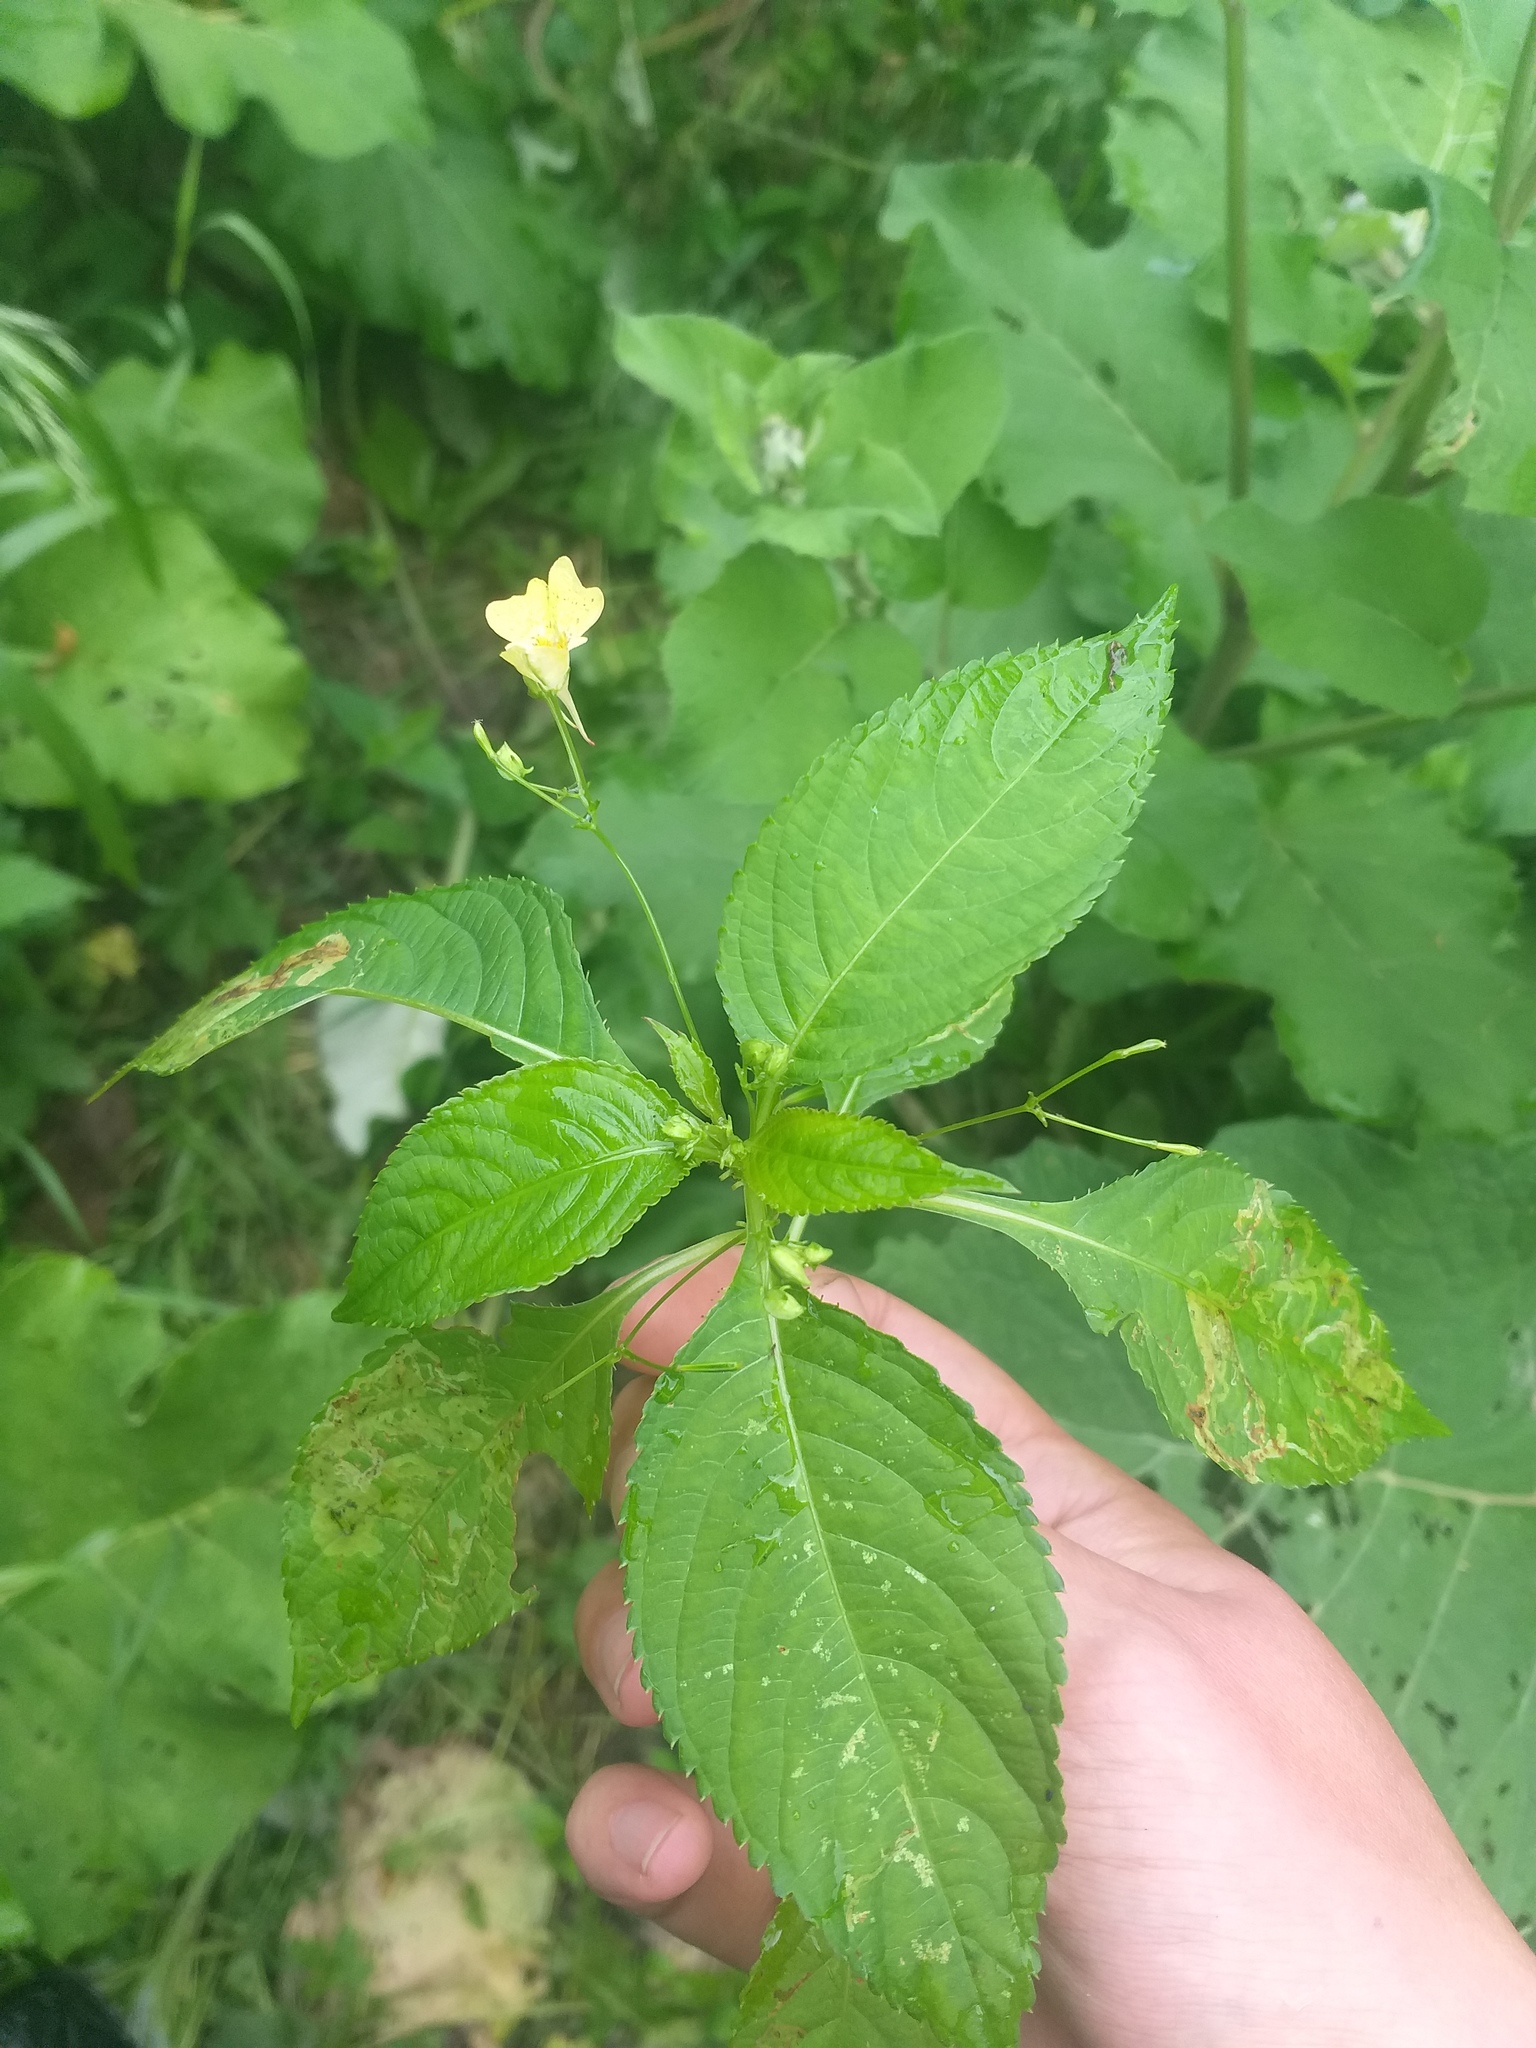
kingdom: Plantae
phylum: Tracheophyta
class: Magnoliopsida
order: Ericales
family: Balsaminaceae
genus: Impatiens
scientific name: Impatiens parviflora
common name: Small balsam
